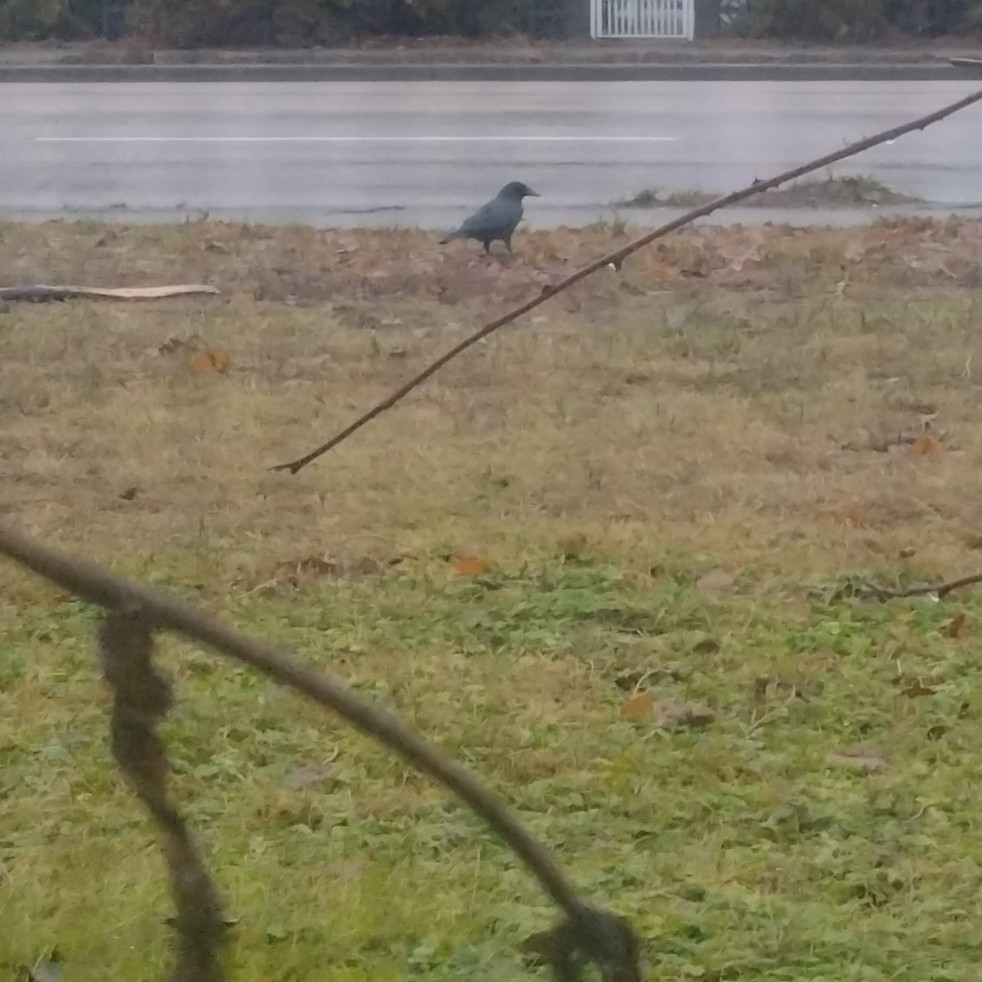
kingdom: Animalia
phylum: Chordata
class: Aves
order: Passeriformes
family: Corvidae
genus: Corvus
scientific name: Corvus brachyrhynchos
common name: American crow
